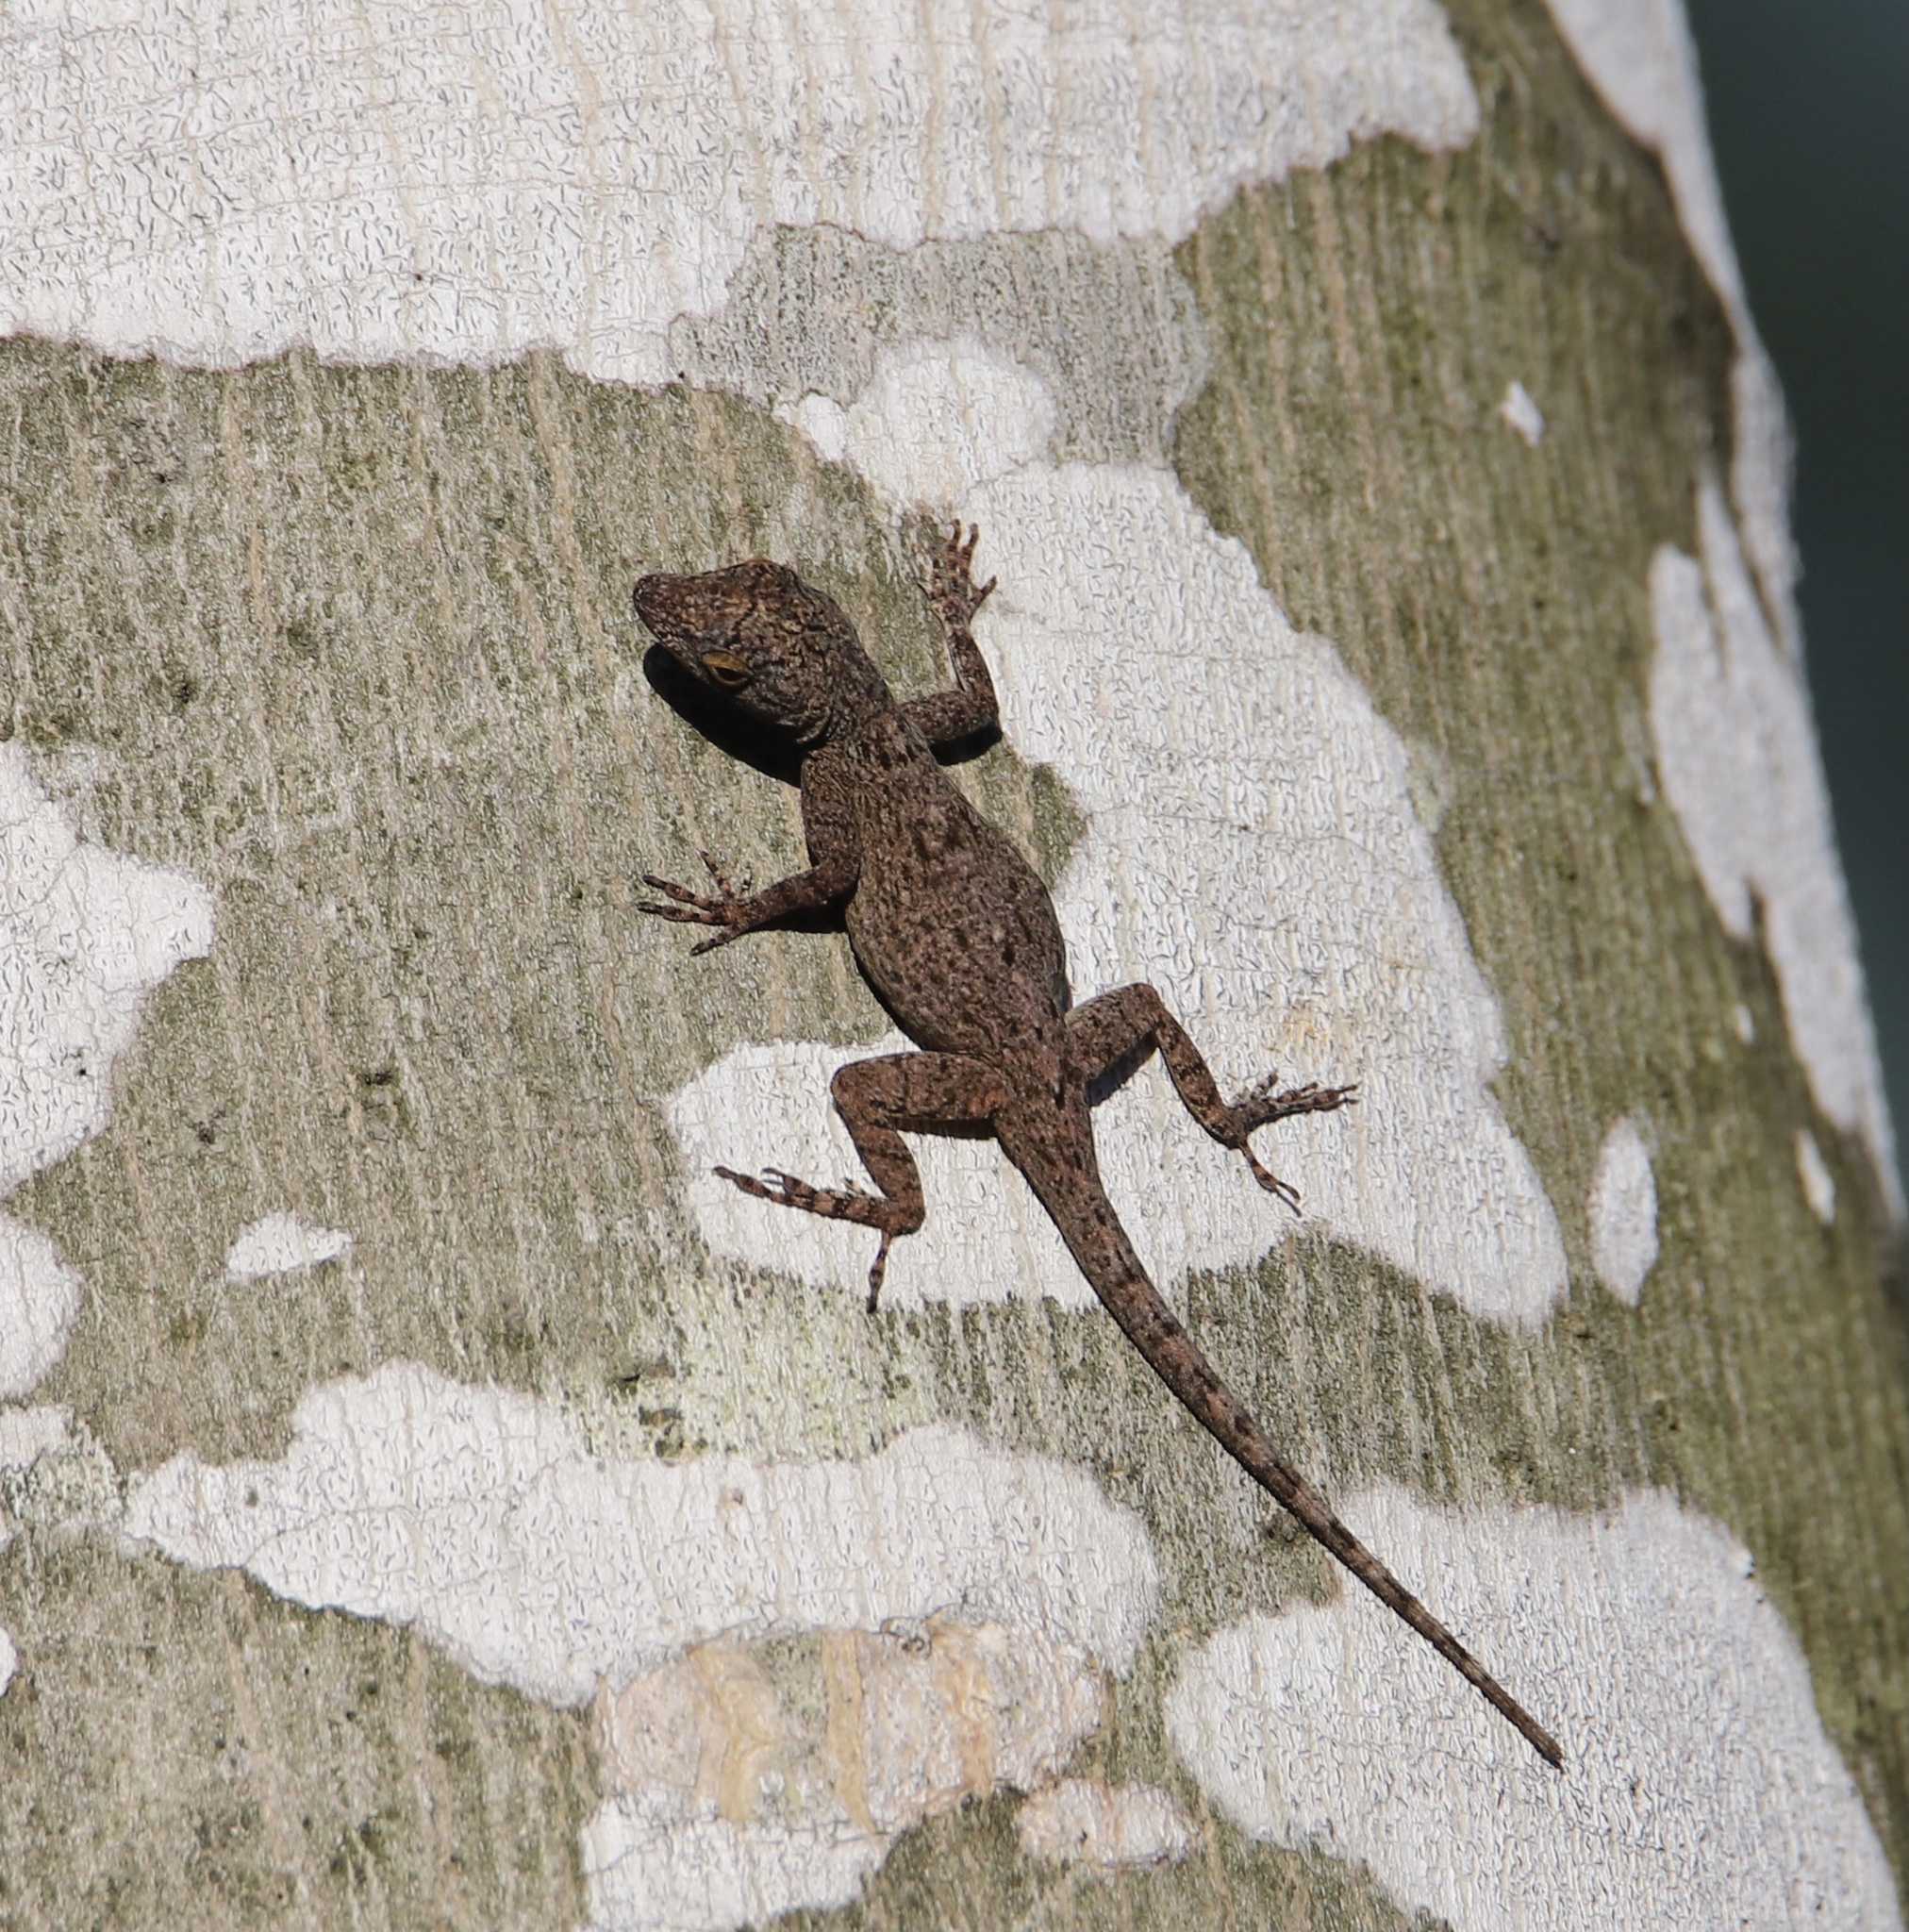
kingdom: Animalia
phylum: Chordata
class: Squamata
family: Dactyloidae
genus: Anolis
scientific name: Anolis distichus
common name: Bark anole
